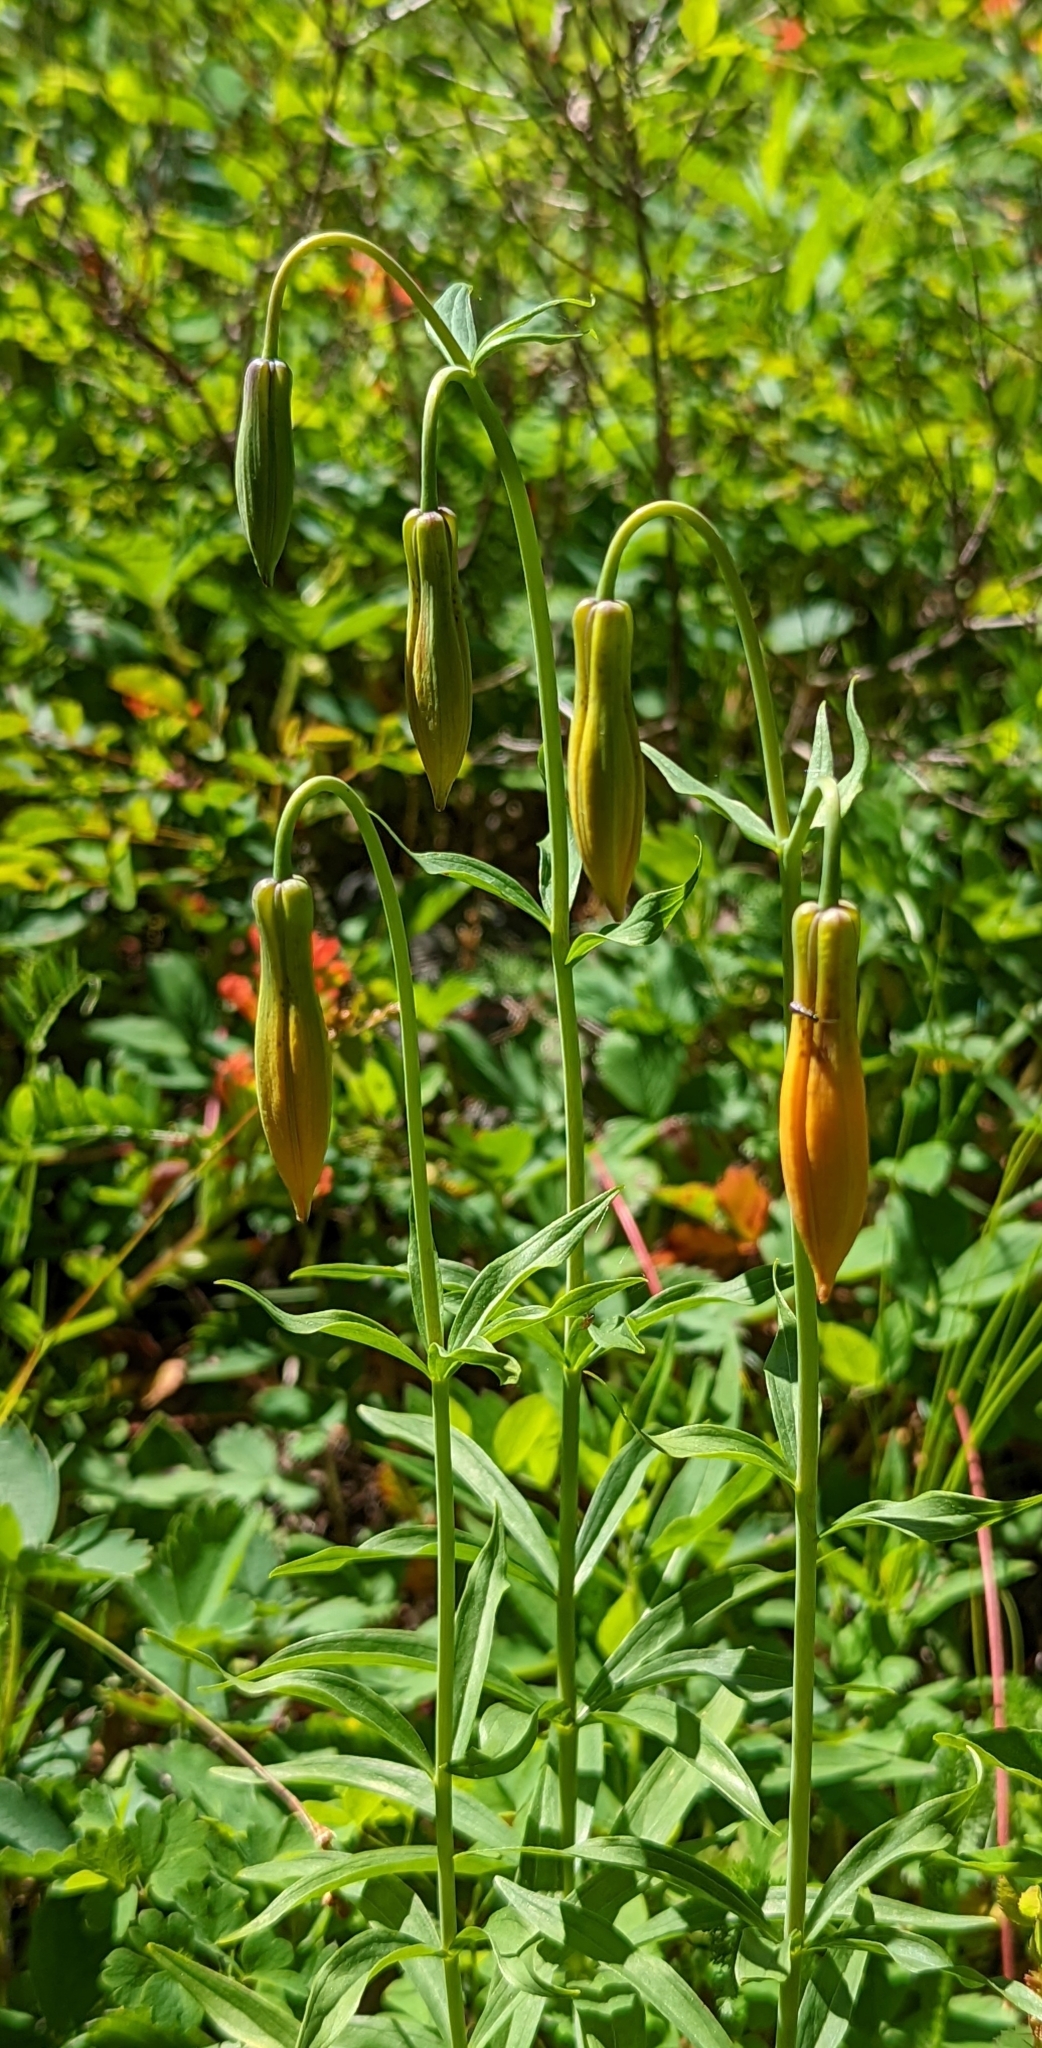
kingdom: Plantae
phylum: Tracheophyta
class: Liliopsida
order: Liliales
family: Liliaceae
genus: Lilium
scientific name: Lilium columbianum
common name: Columbia lily
